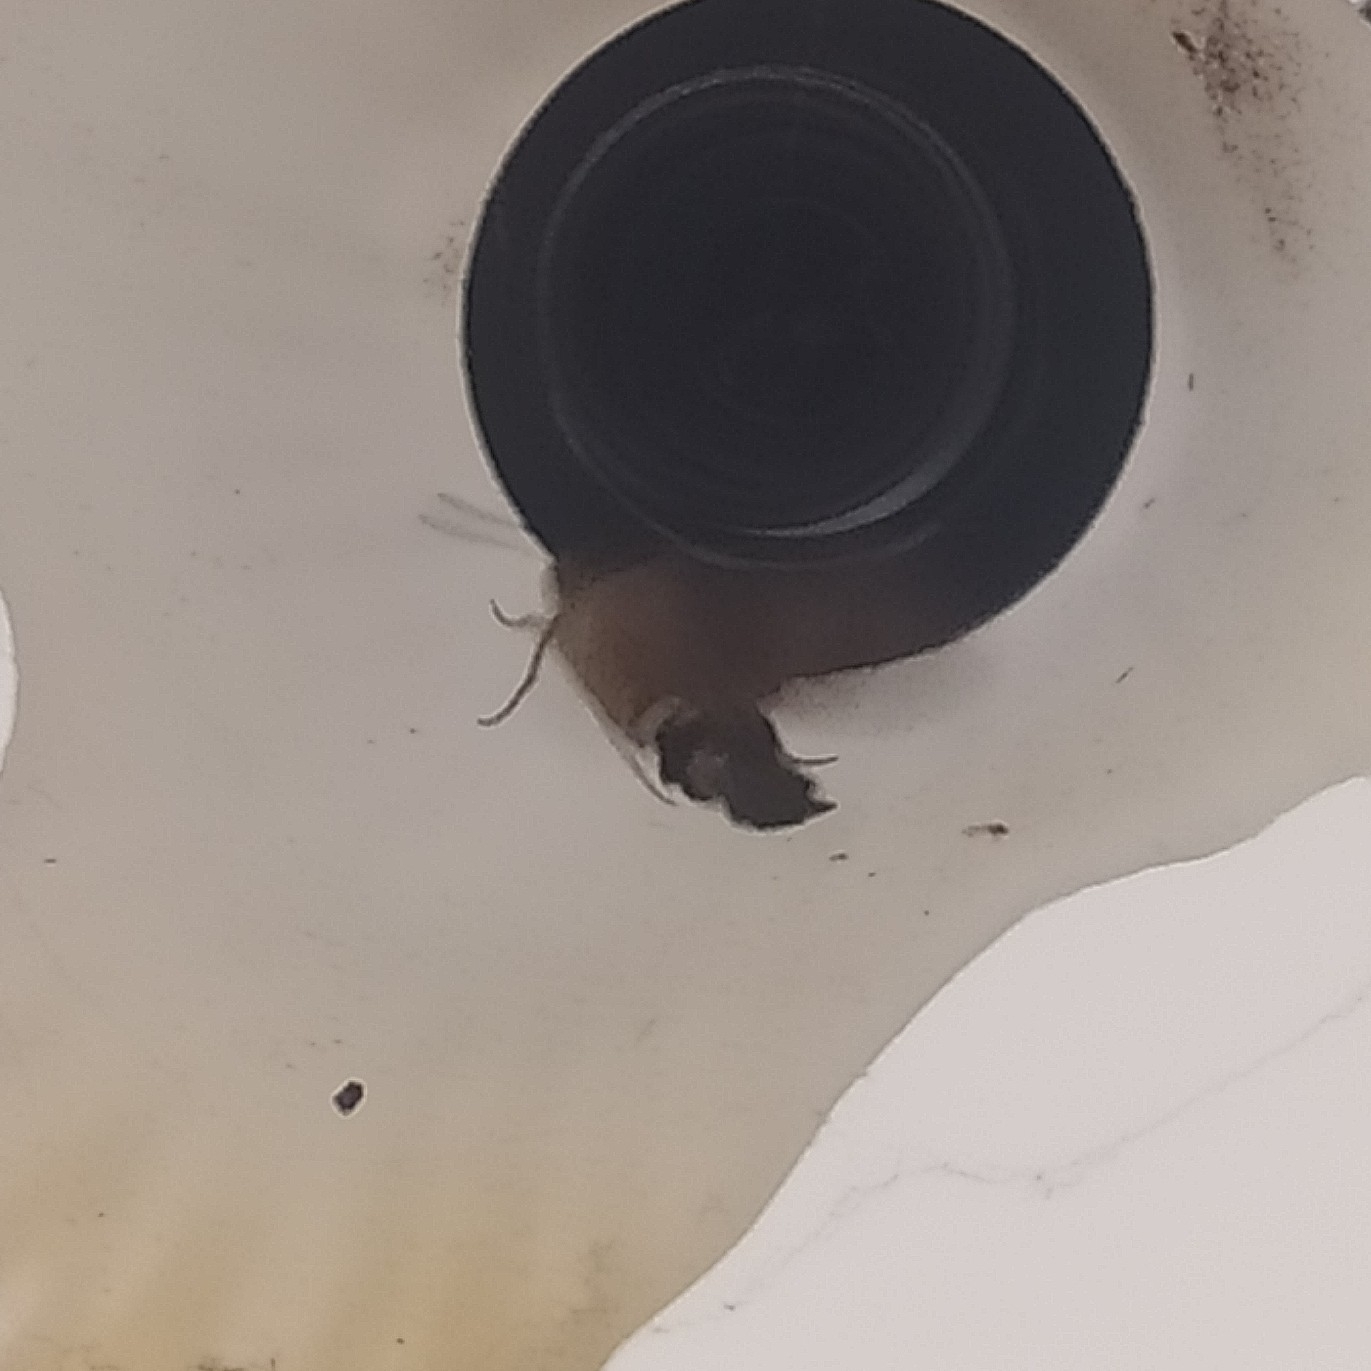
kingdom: Animalia
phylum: Arthropoda
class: Insecta
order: Lepidoptera
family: Sphingidae
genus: Macroglossum
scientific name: Macroglossum stellatarum
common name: Humming-bird hawk-moth
